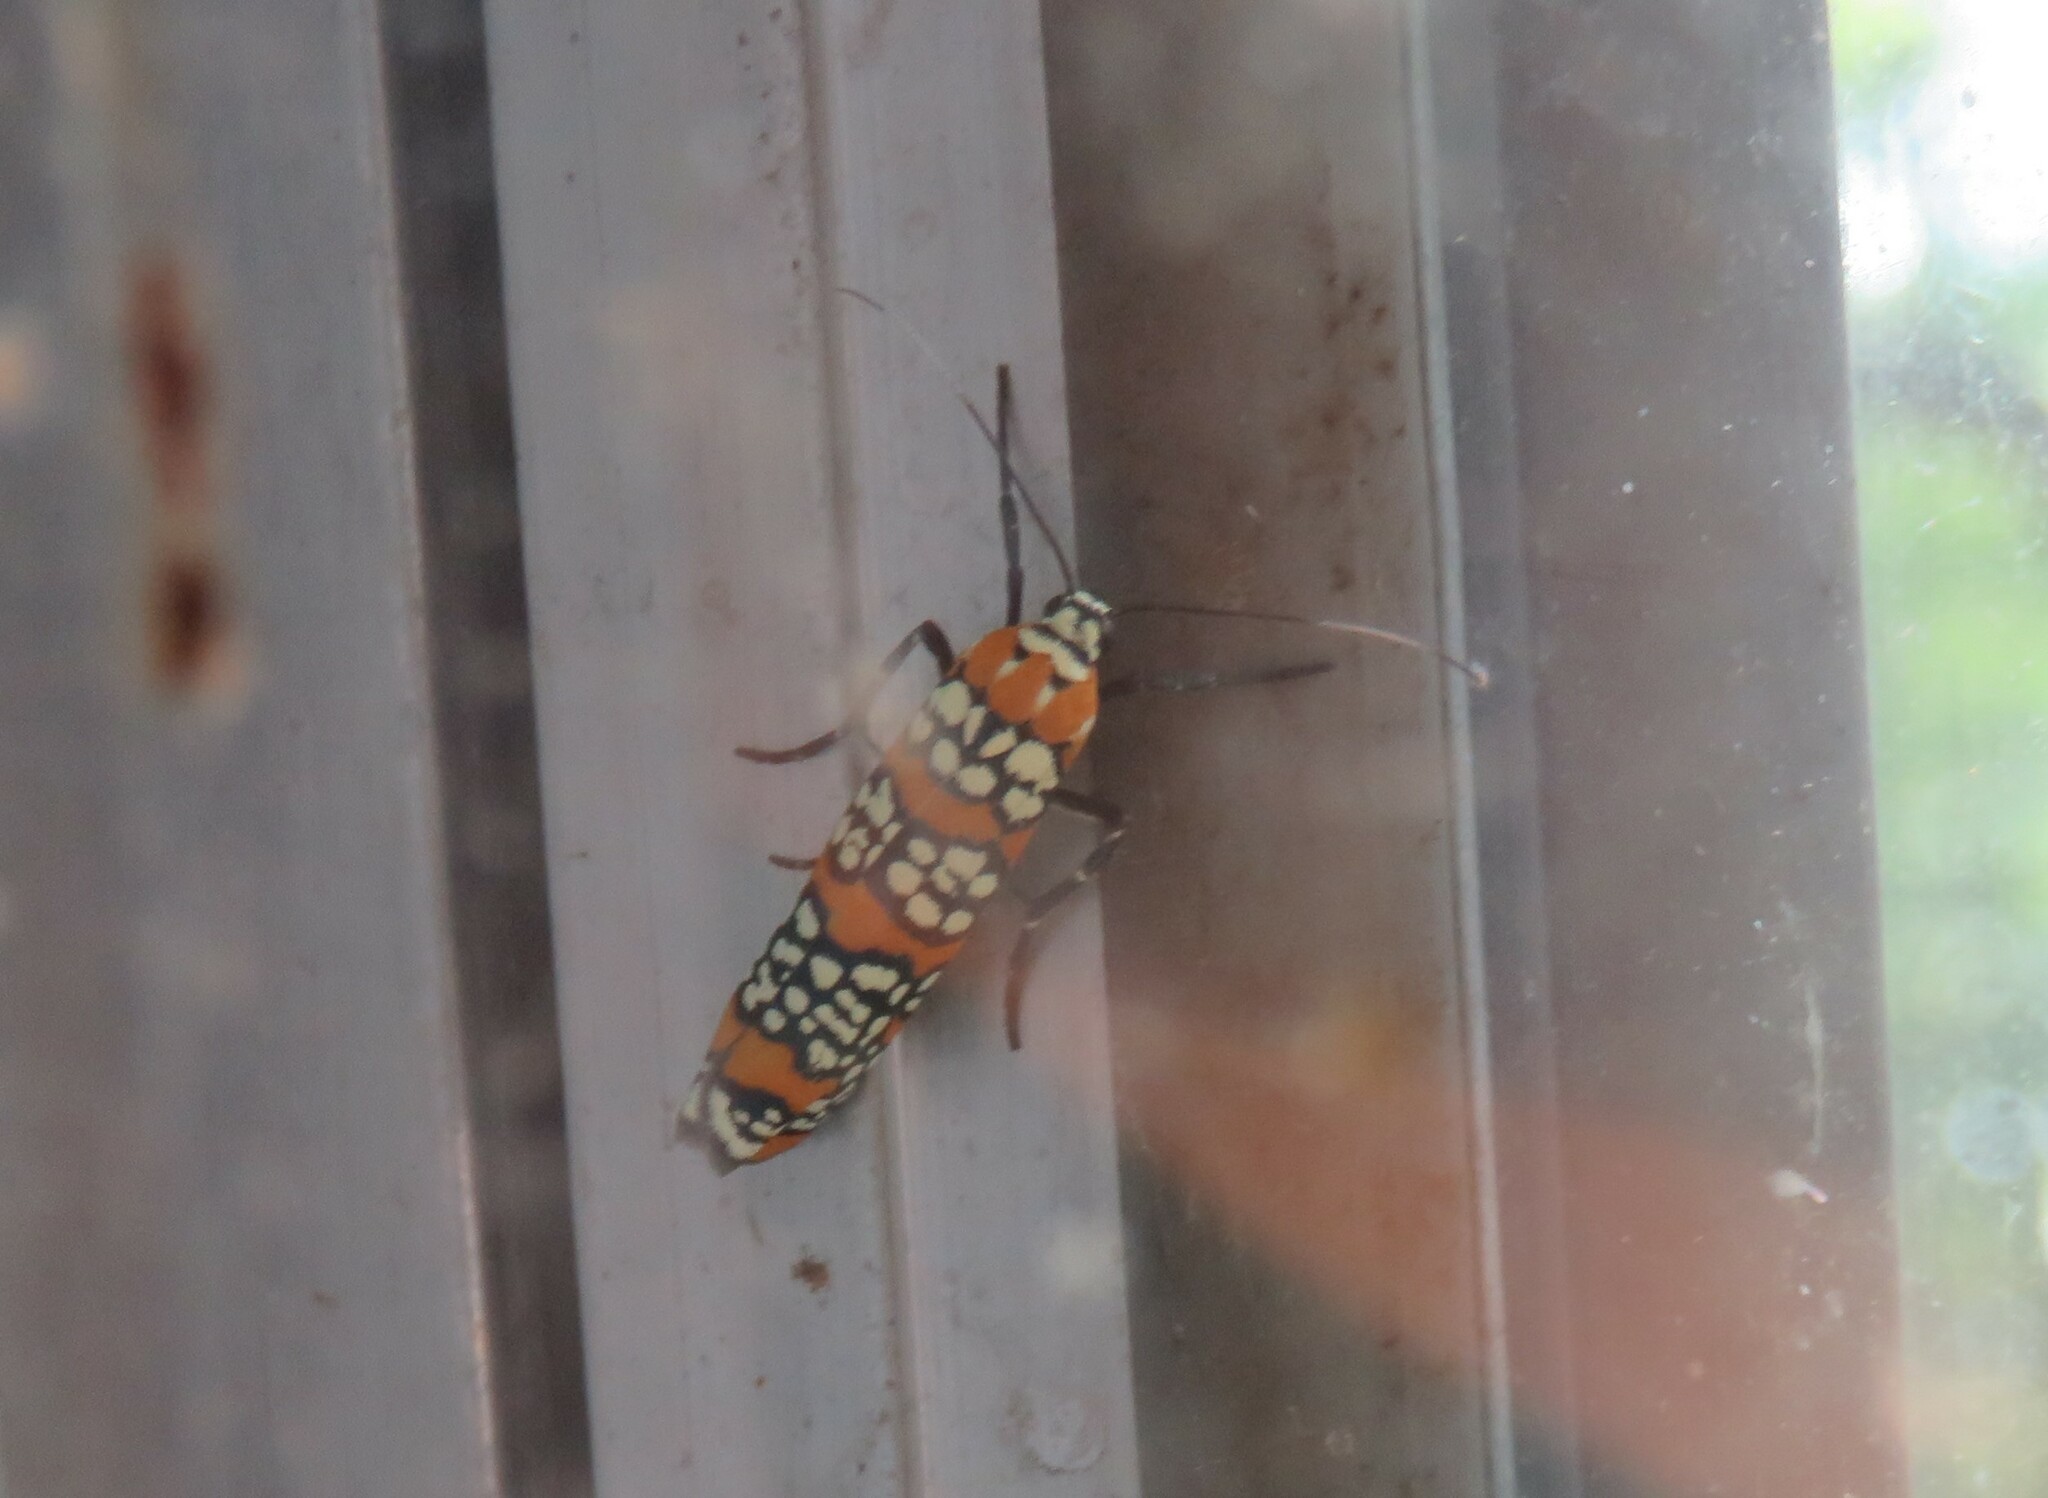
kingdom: Animalia
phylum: Arthropoda
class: Insecta
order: Lepidoptera
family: Attevidae
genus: Atteva
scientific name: Atteva punctella
